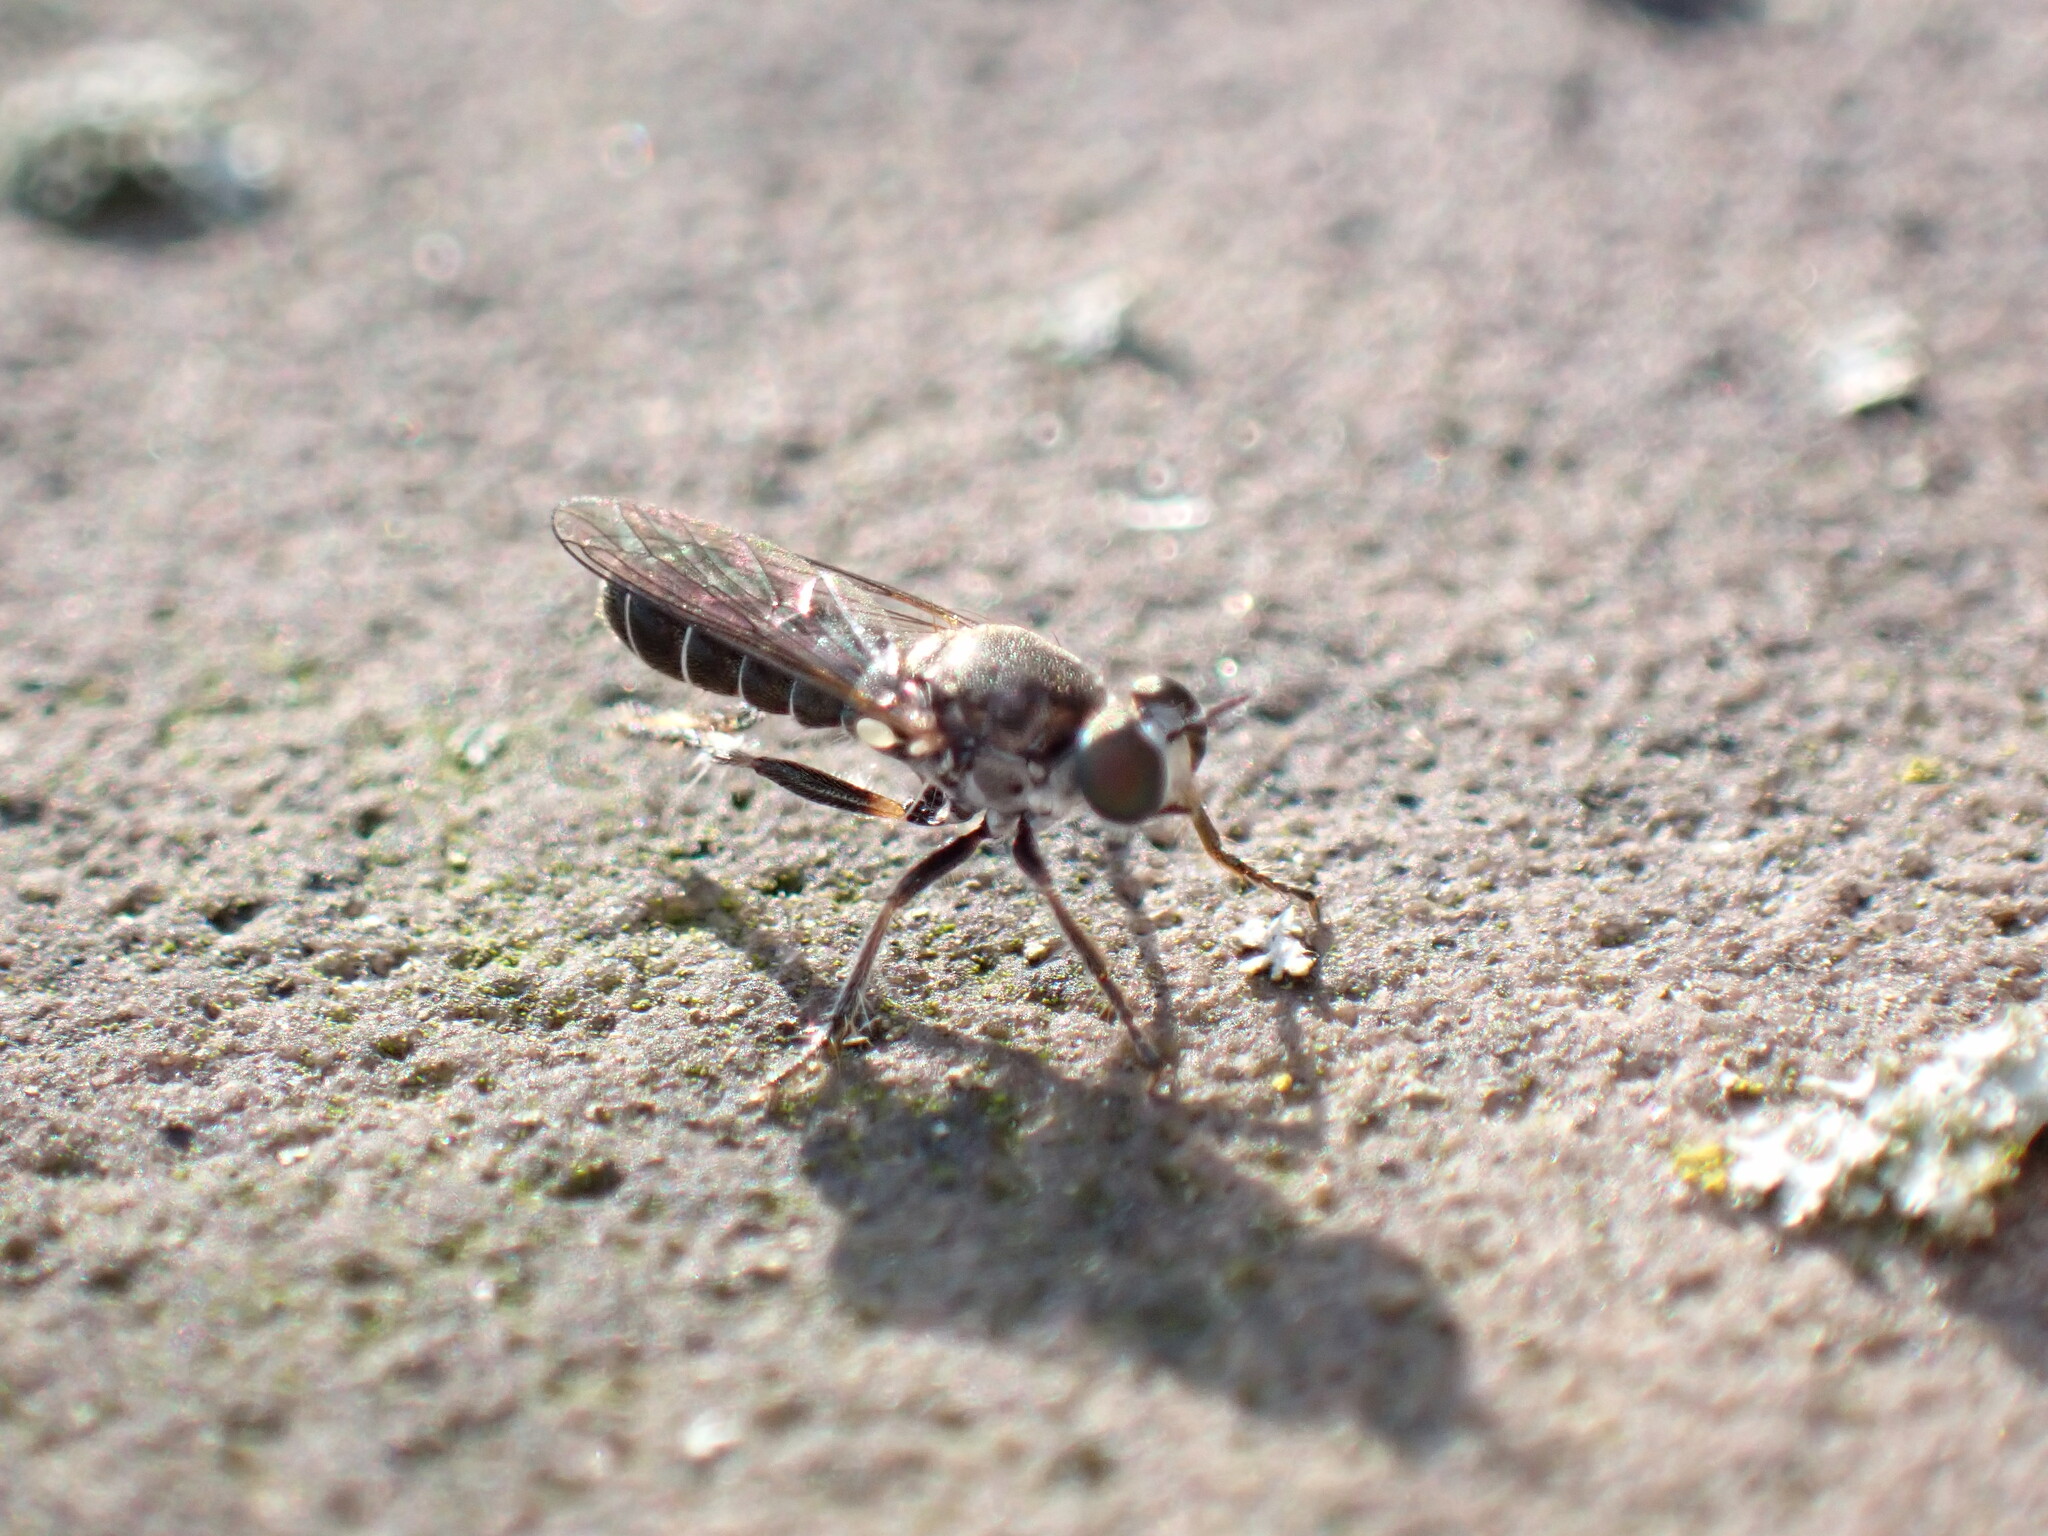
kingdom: Animalia
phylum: Arthropoda
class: Insecta
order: Diptera
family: Asilidae
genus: Atomosia
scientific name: Atomosia puella
